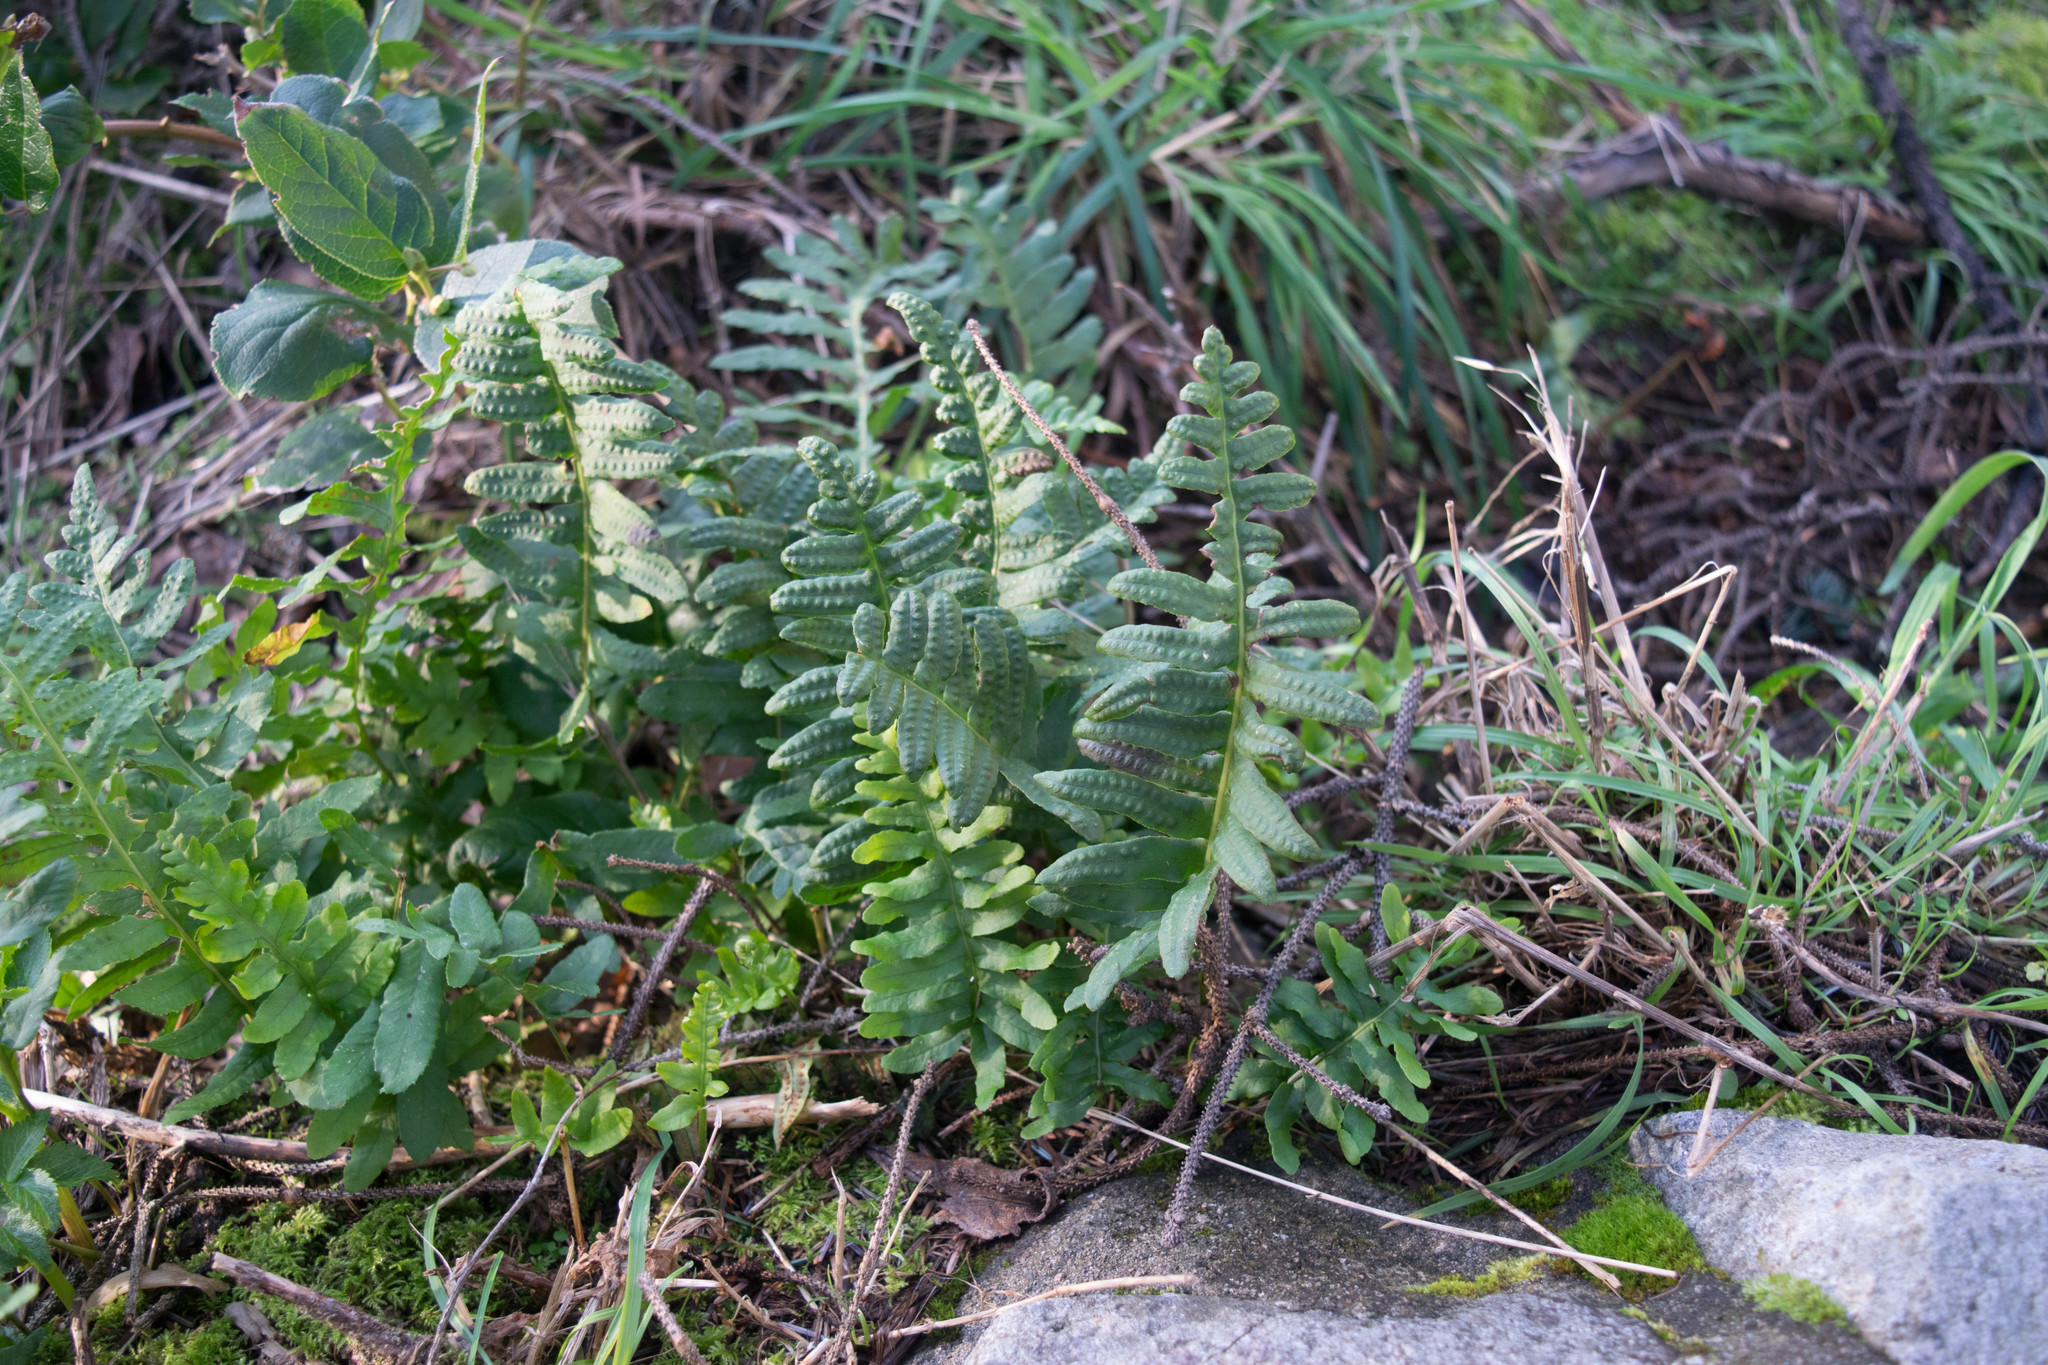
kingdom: Plantae
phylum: Tracheophyta
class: Polypodiopsida
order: Polypodiales
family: Polypodiaceae
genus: Polypodium
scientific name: Polypodium glycyrrhiza
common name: Licorice fern
